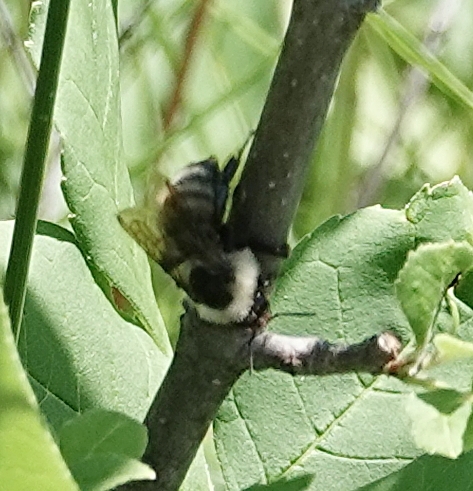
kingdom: Animalia
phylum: Arthropoda
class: Insecta
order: Hymenoptera
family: Apidae
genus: Bombus
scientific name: Bombus fervidus
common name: Yellow bumble bee
